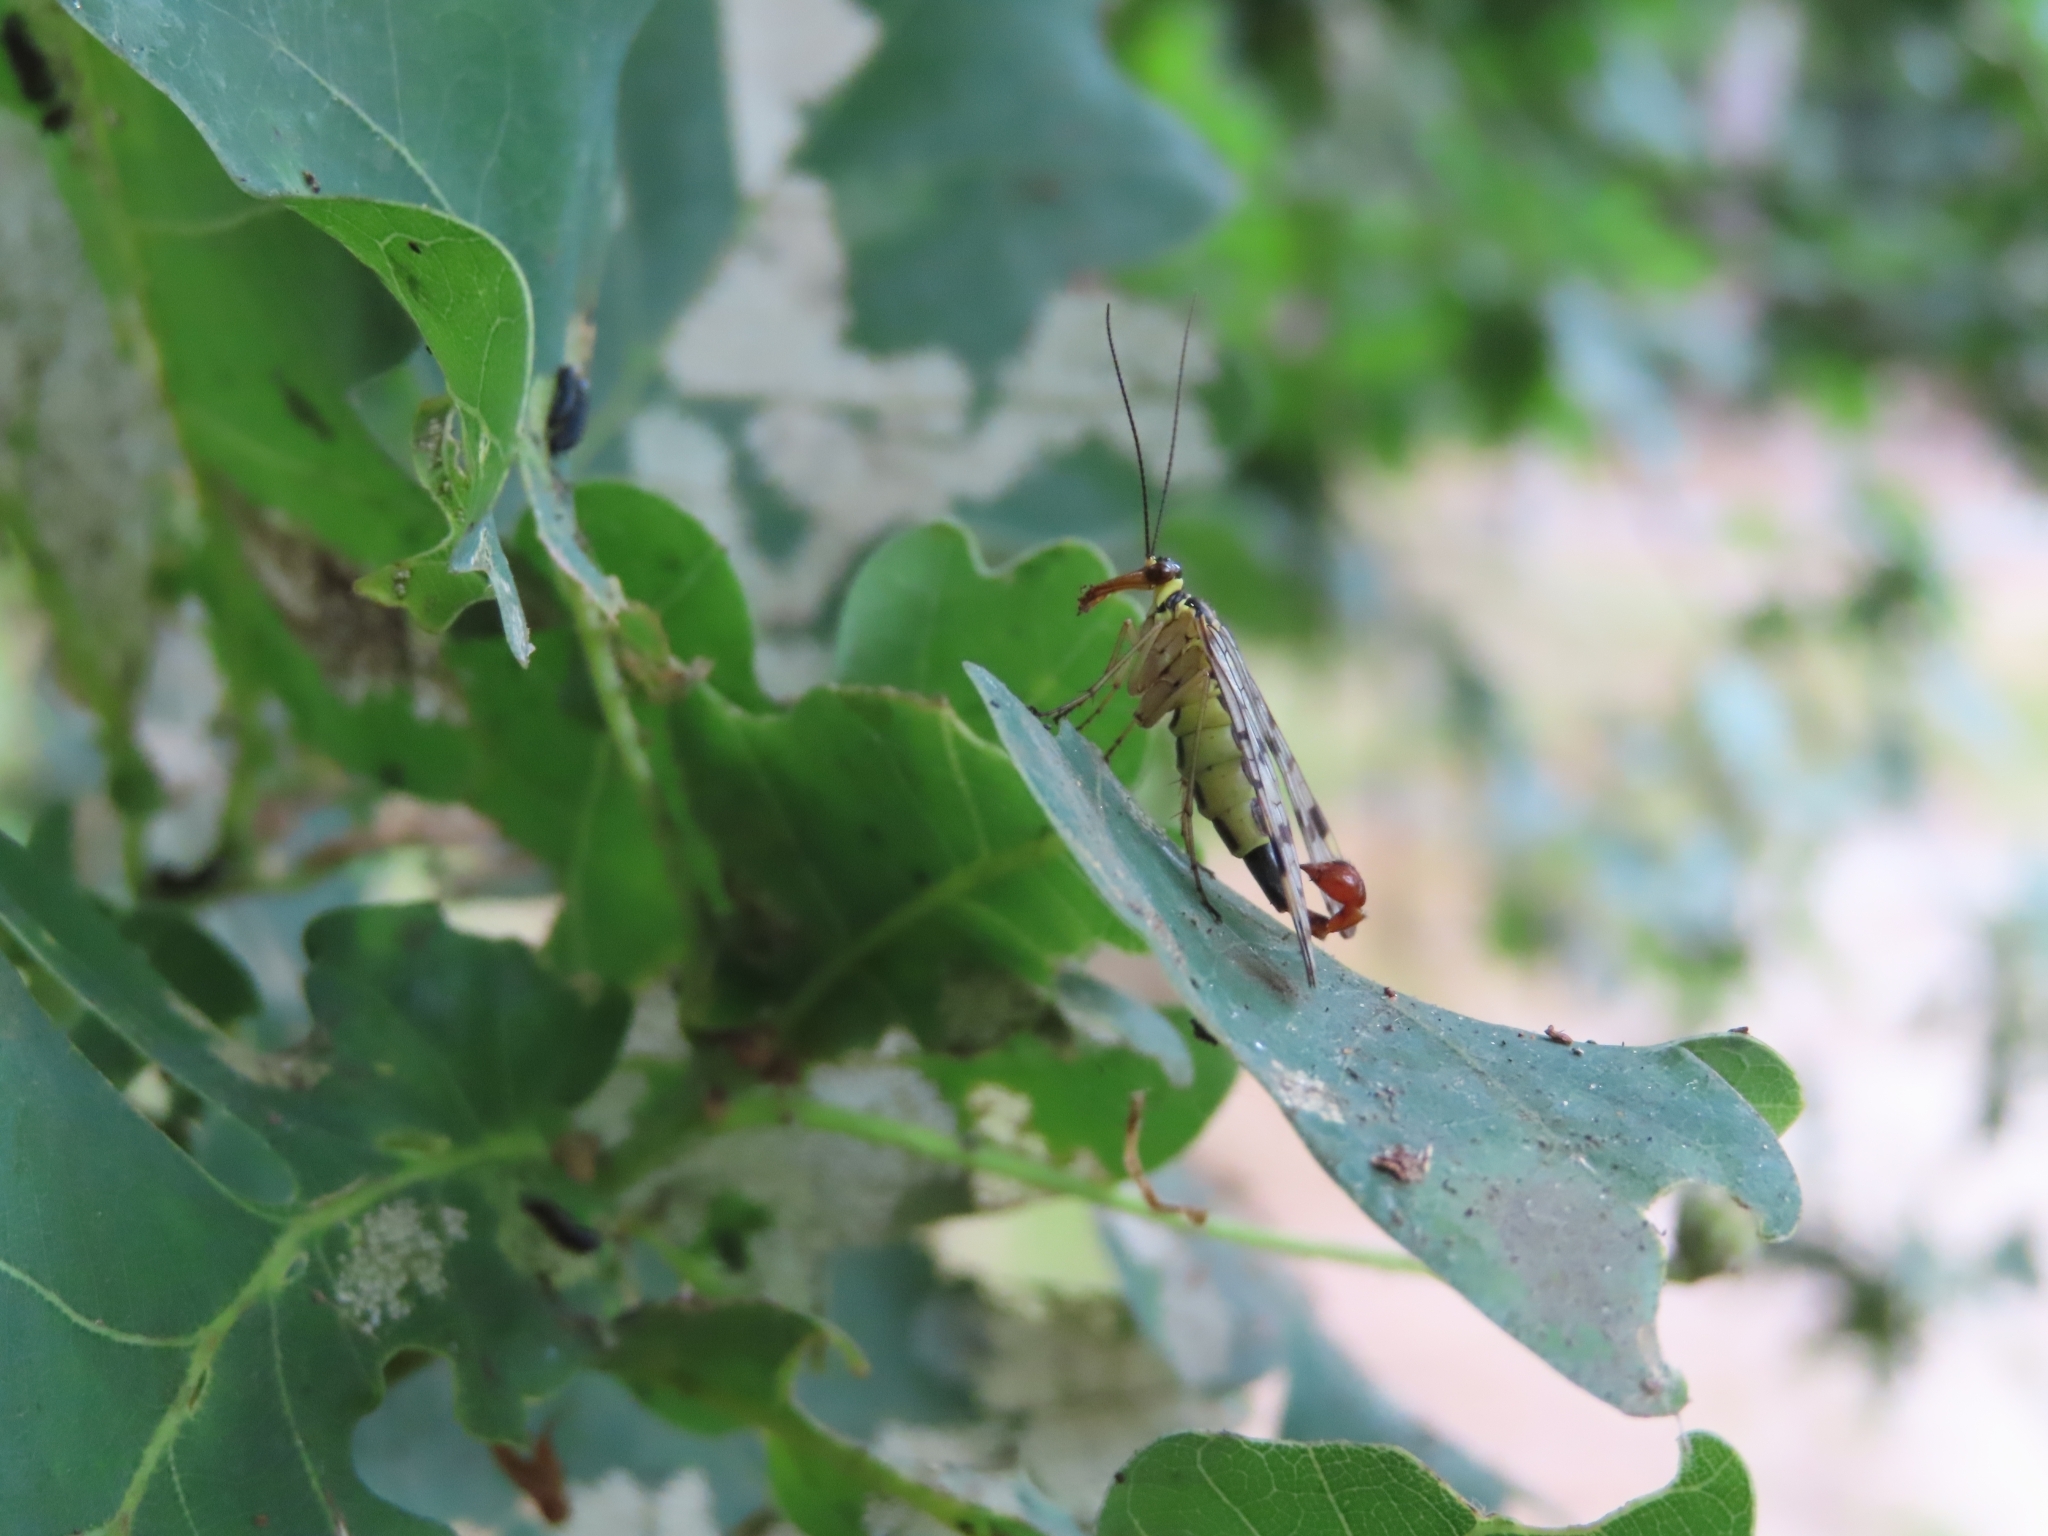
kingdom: Animalia
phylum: Arthropoda
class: Insecta
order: Mecoptera
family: Panorpidae
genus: Panorpa
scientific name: Panorpa communis
